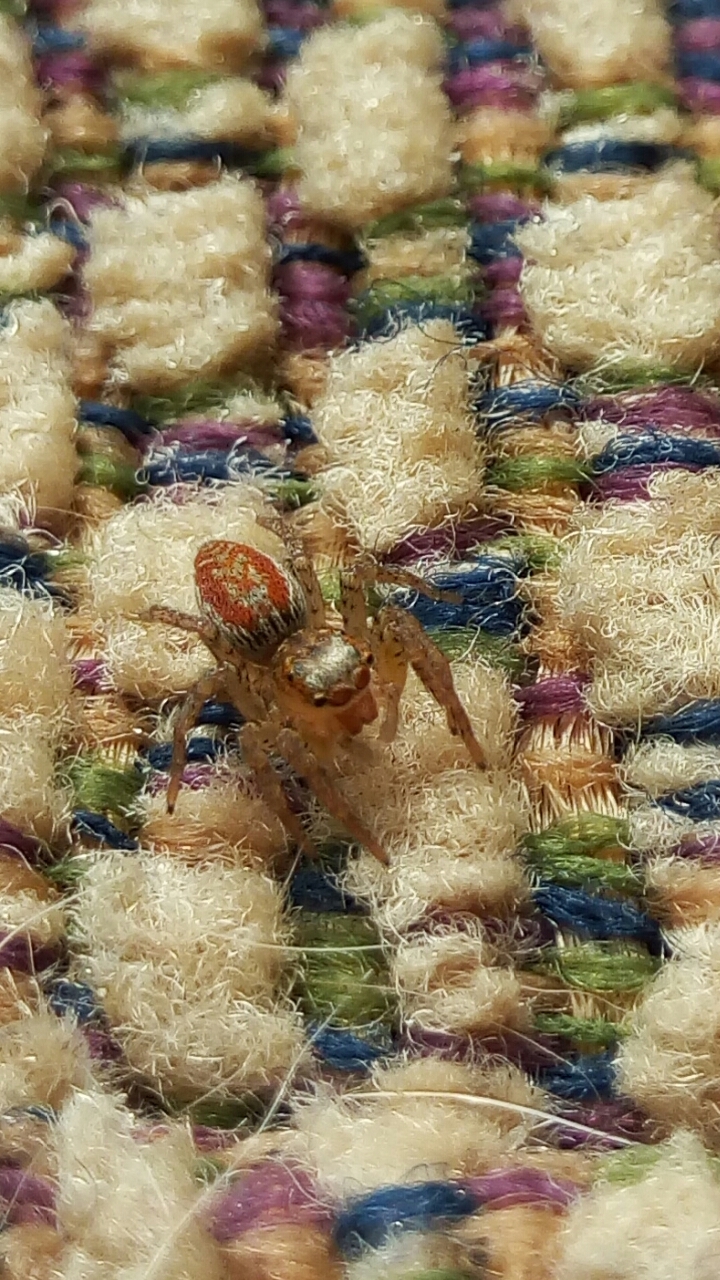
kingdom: Animalia
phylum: Arthropoda
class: Arachnida
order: Araneae
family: Salticidae
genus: Maevia
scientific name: Maevia inclemens
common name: Dimorphic jumper
